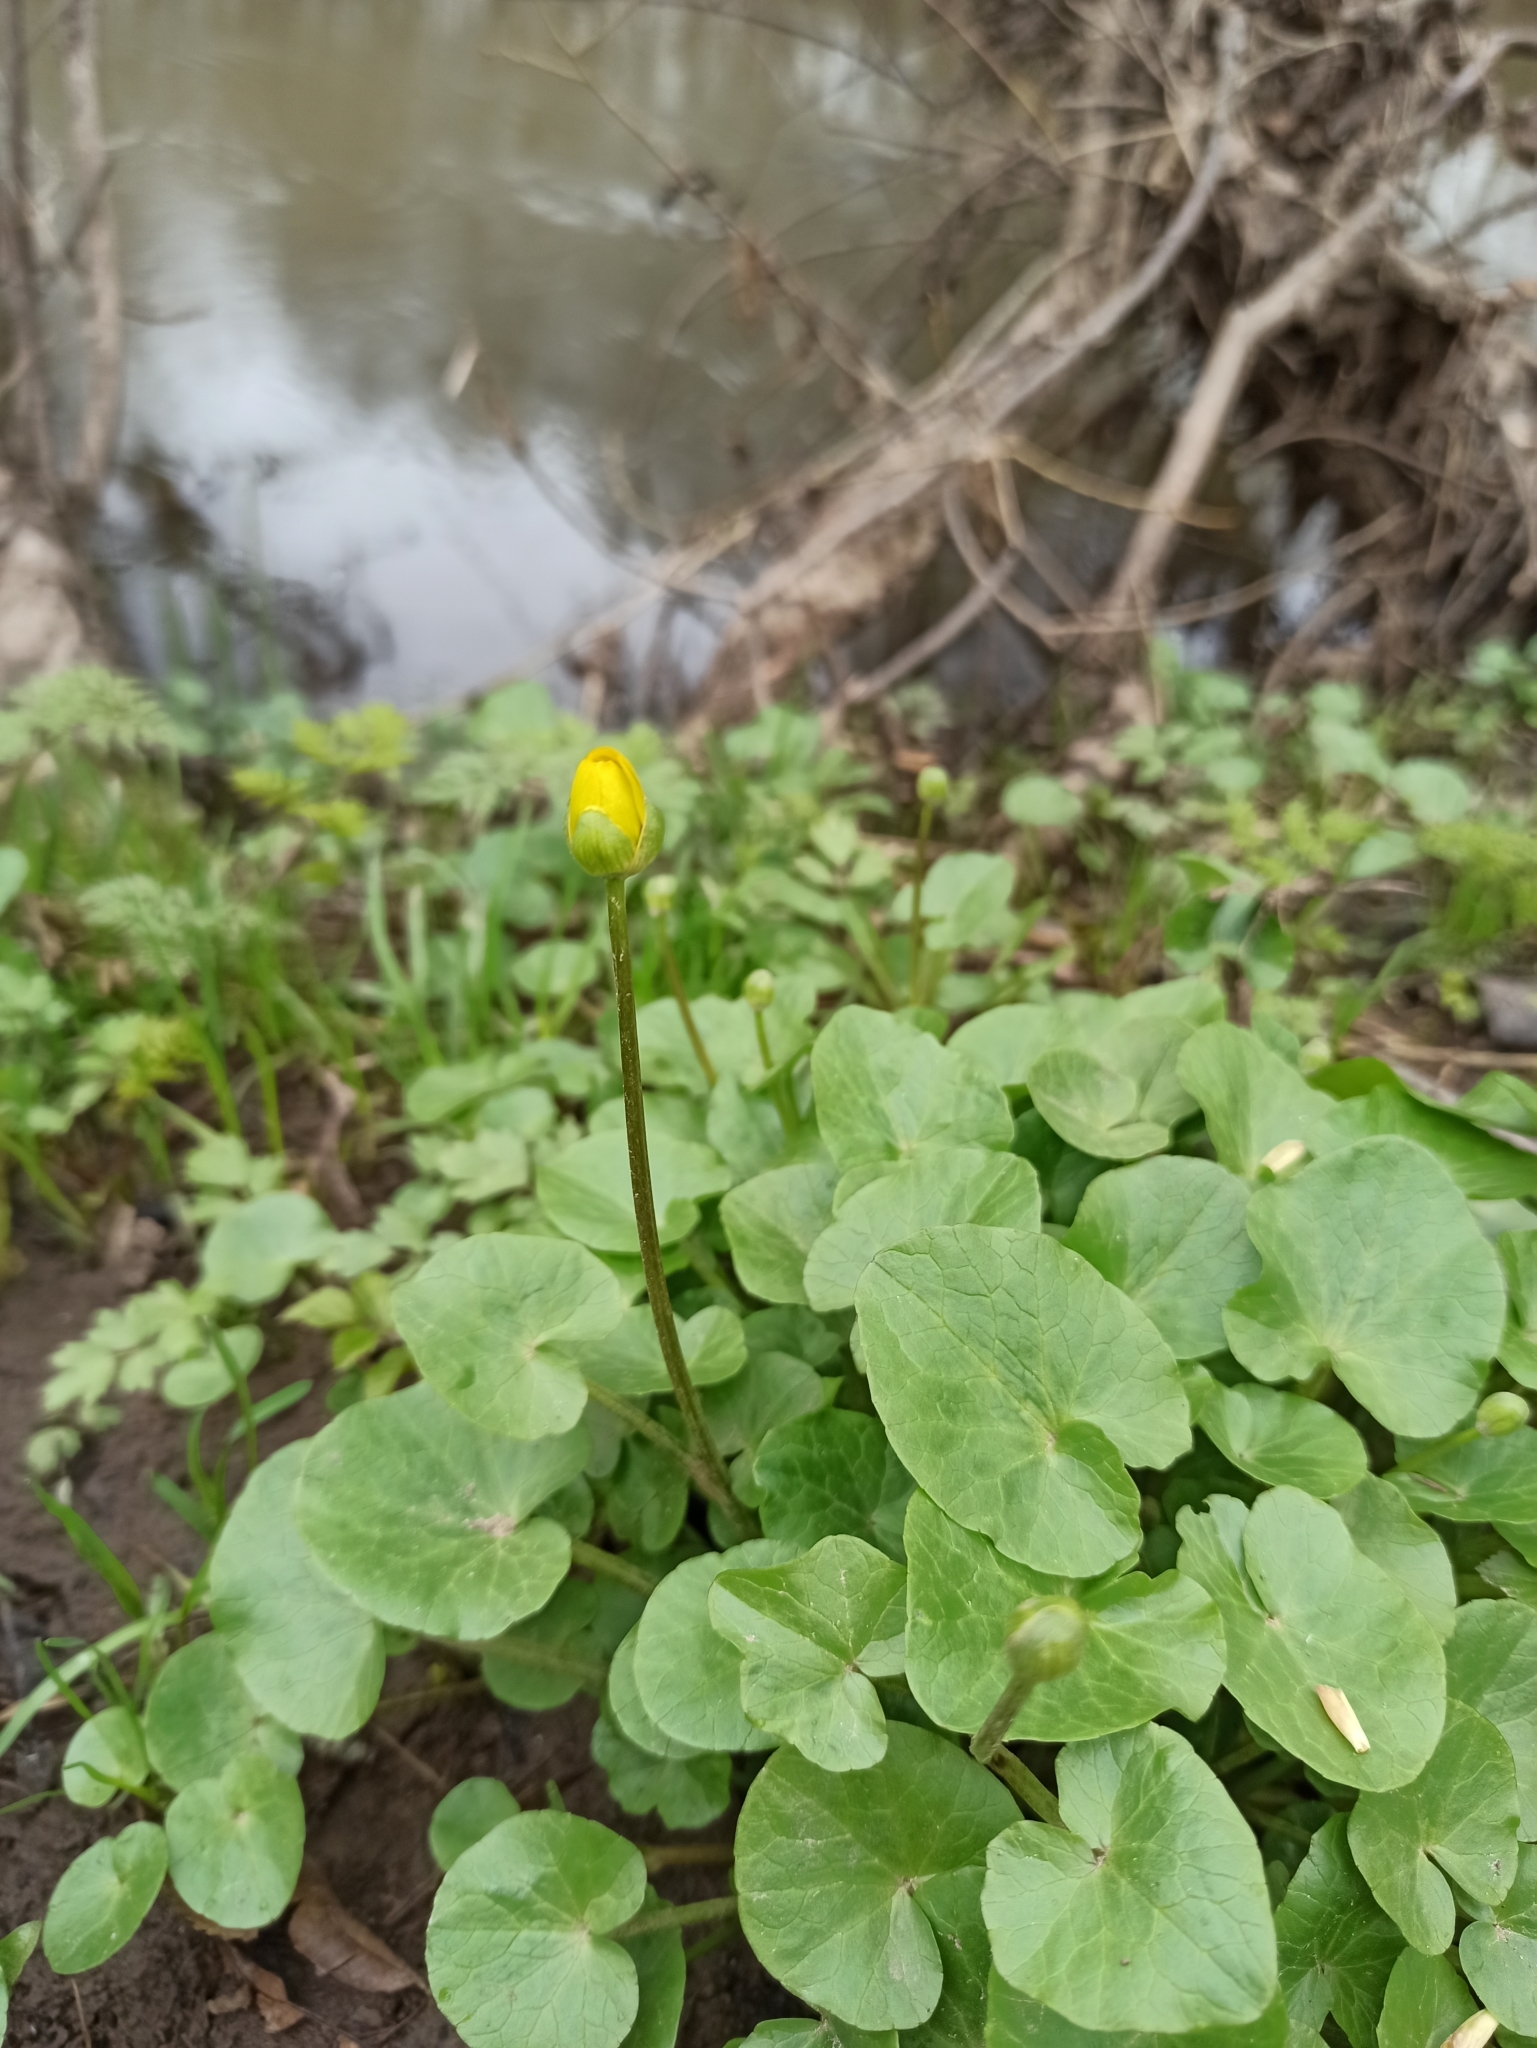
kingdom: Plantae
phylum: Tracheophyta
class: Magnoliopsida
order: Ranunculales
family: Ranunculaceae
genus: Ficaria
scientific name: Ficaria verna
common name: Lesser celandine
